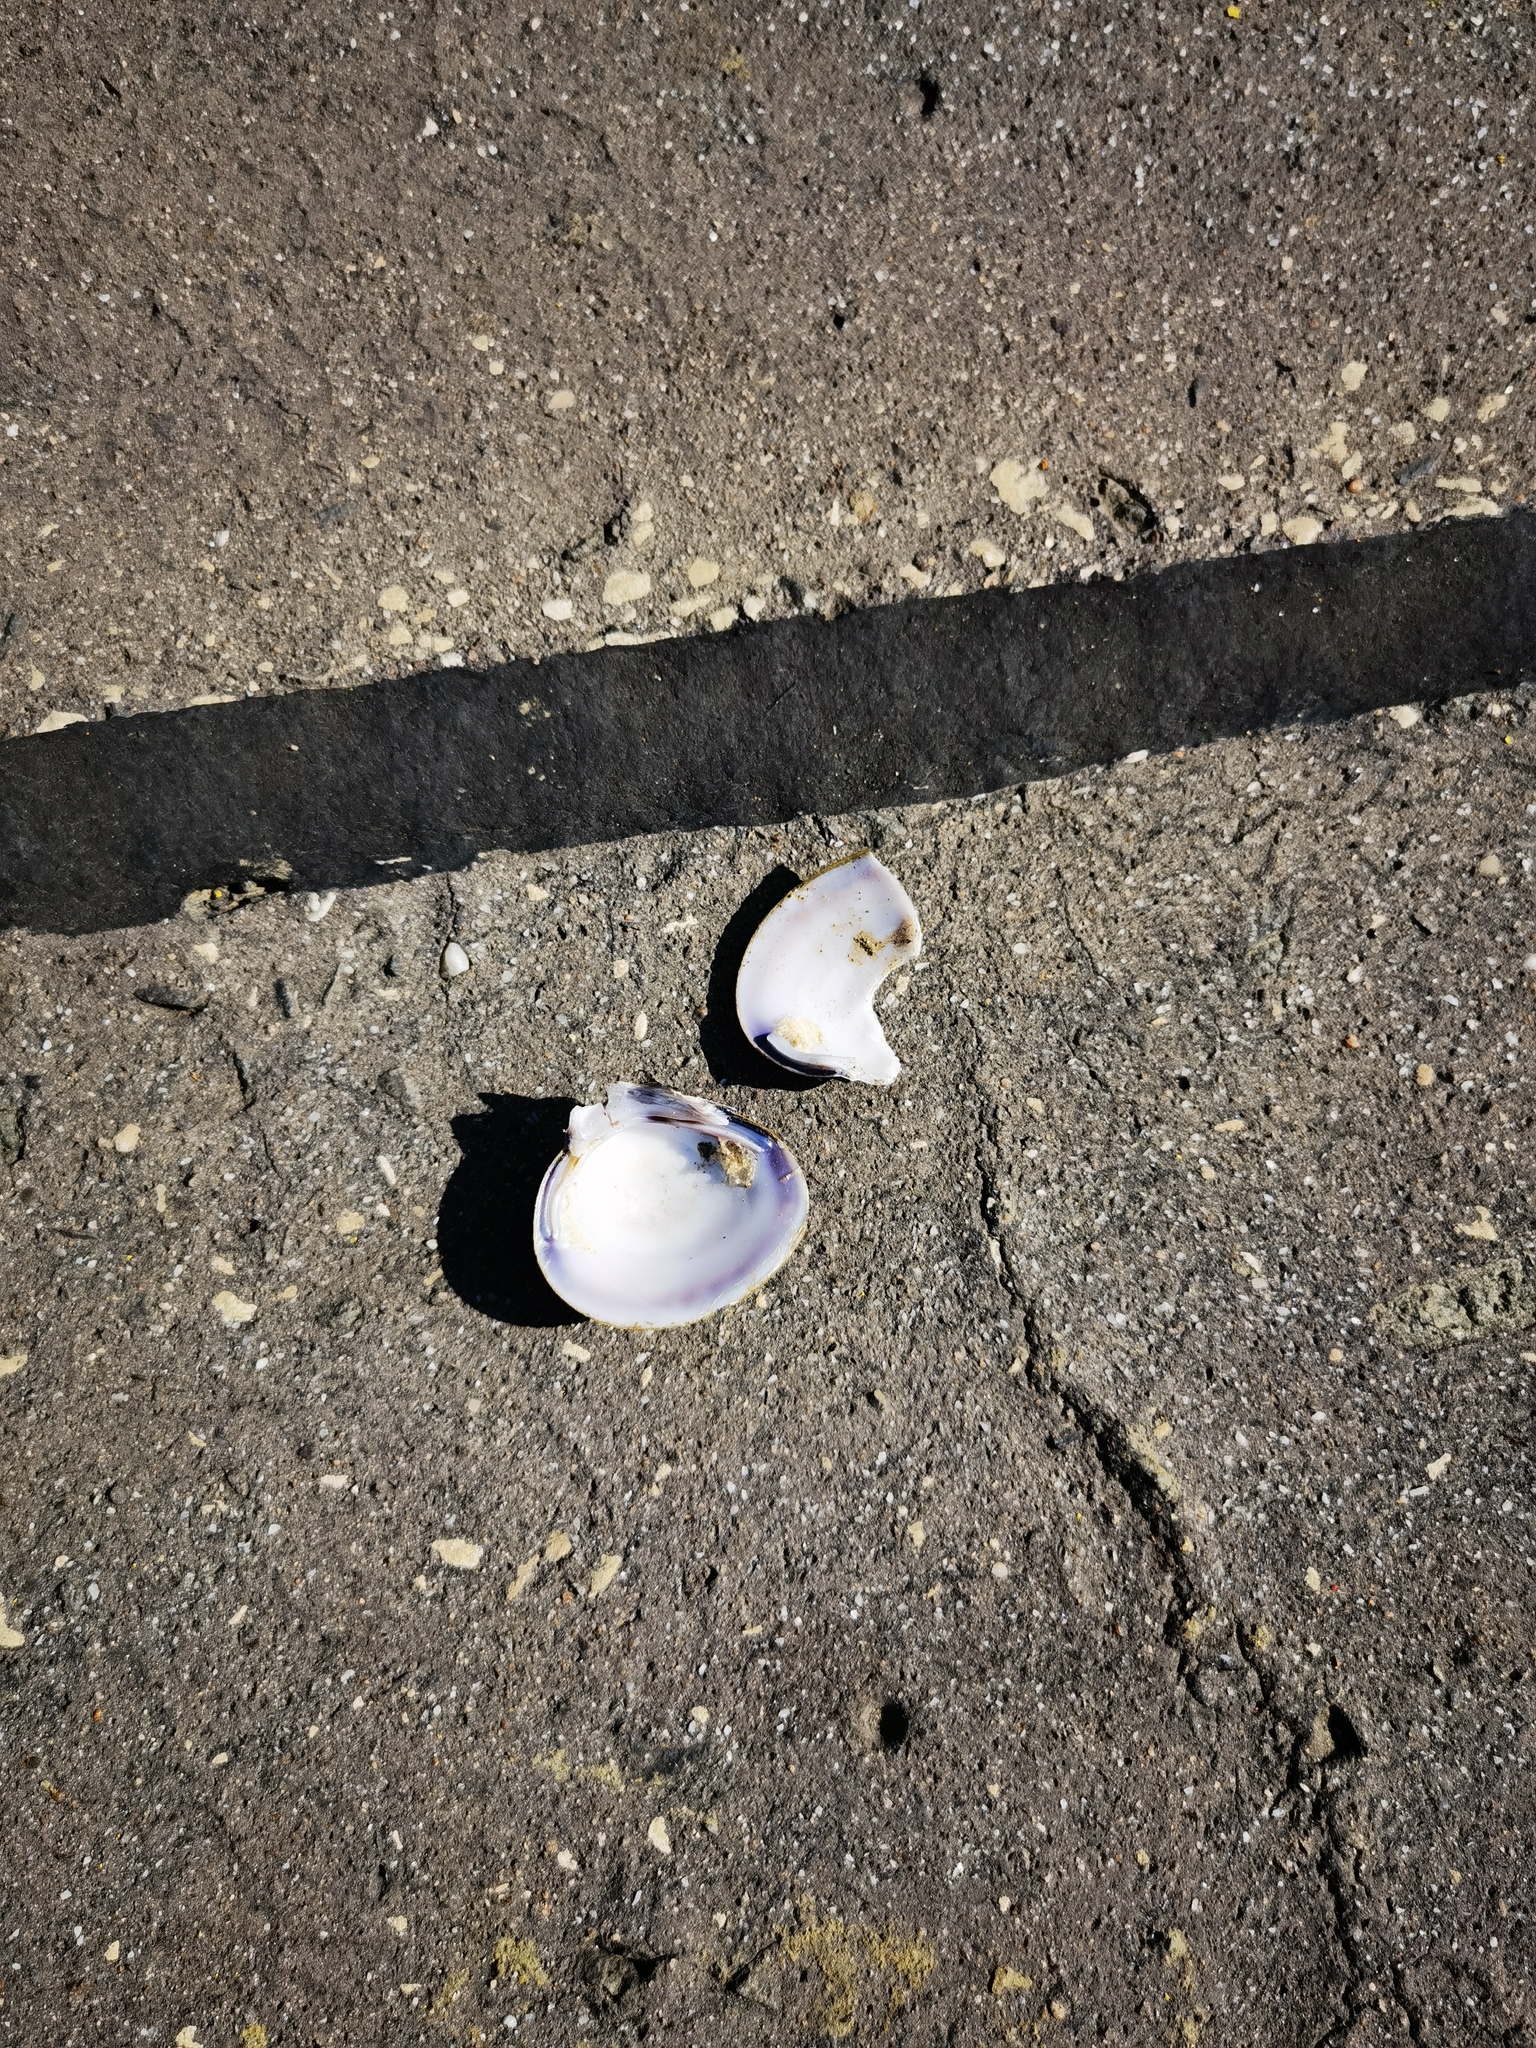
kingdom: Animalia
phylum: Mollusca
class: Bivalvia
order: Venerida
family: Cyrenidae
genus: Corbicula
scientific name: Corbicula fluminea
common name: Asian clam
